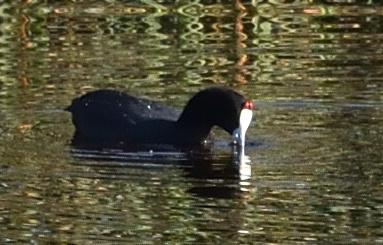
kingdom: Animalia
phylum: Chordata
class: Aves
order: Gruiformes
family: Rallidae
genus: Fulica
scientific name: Fulica cristata
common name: Red-knobbed coot
